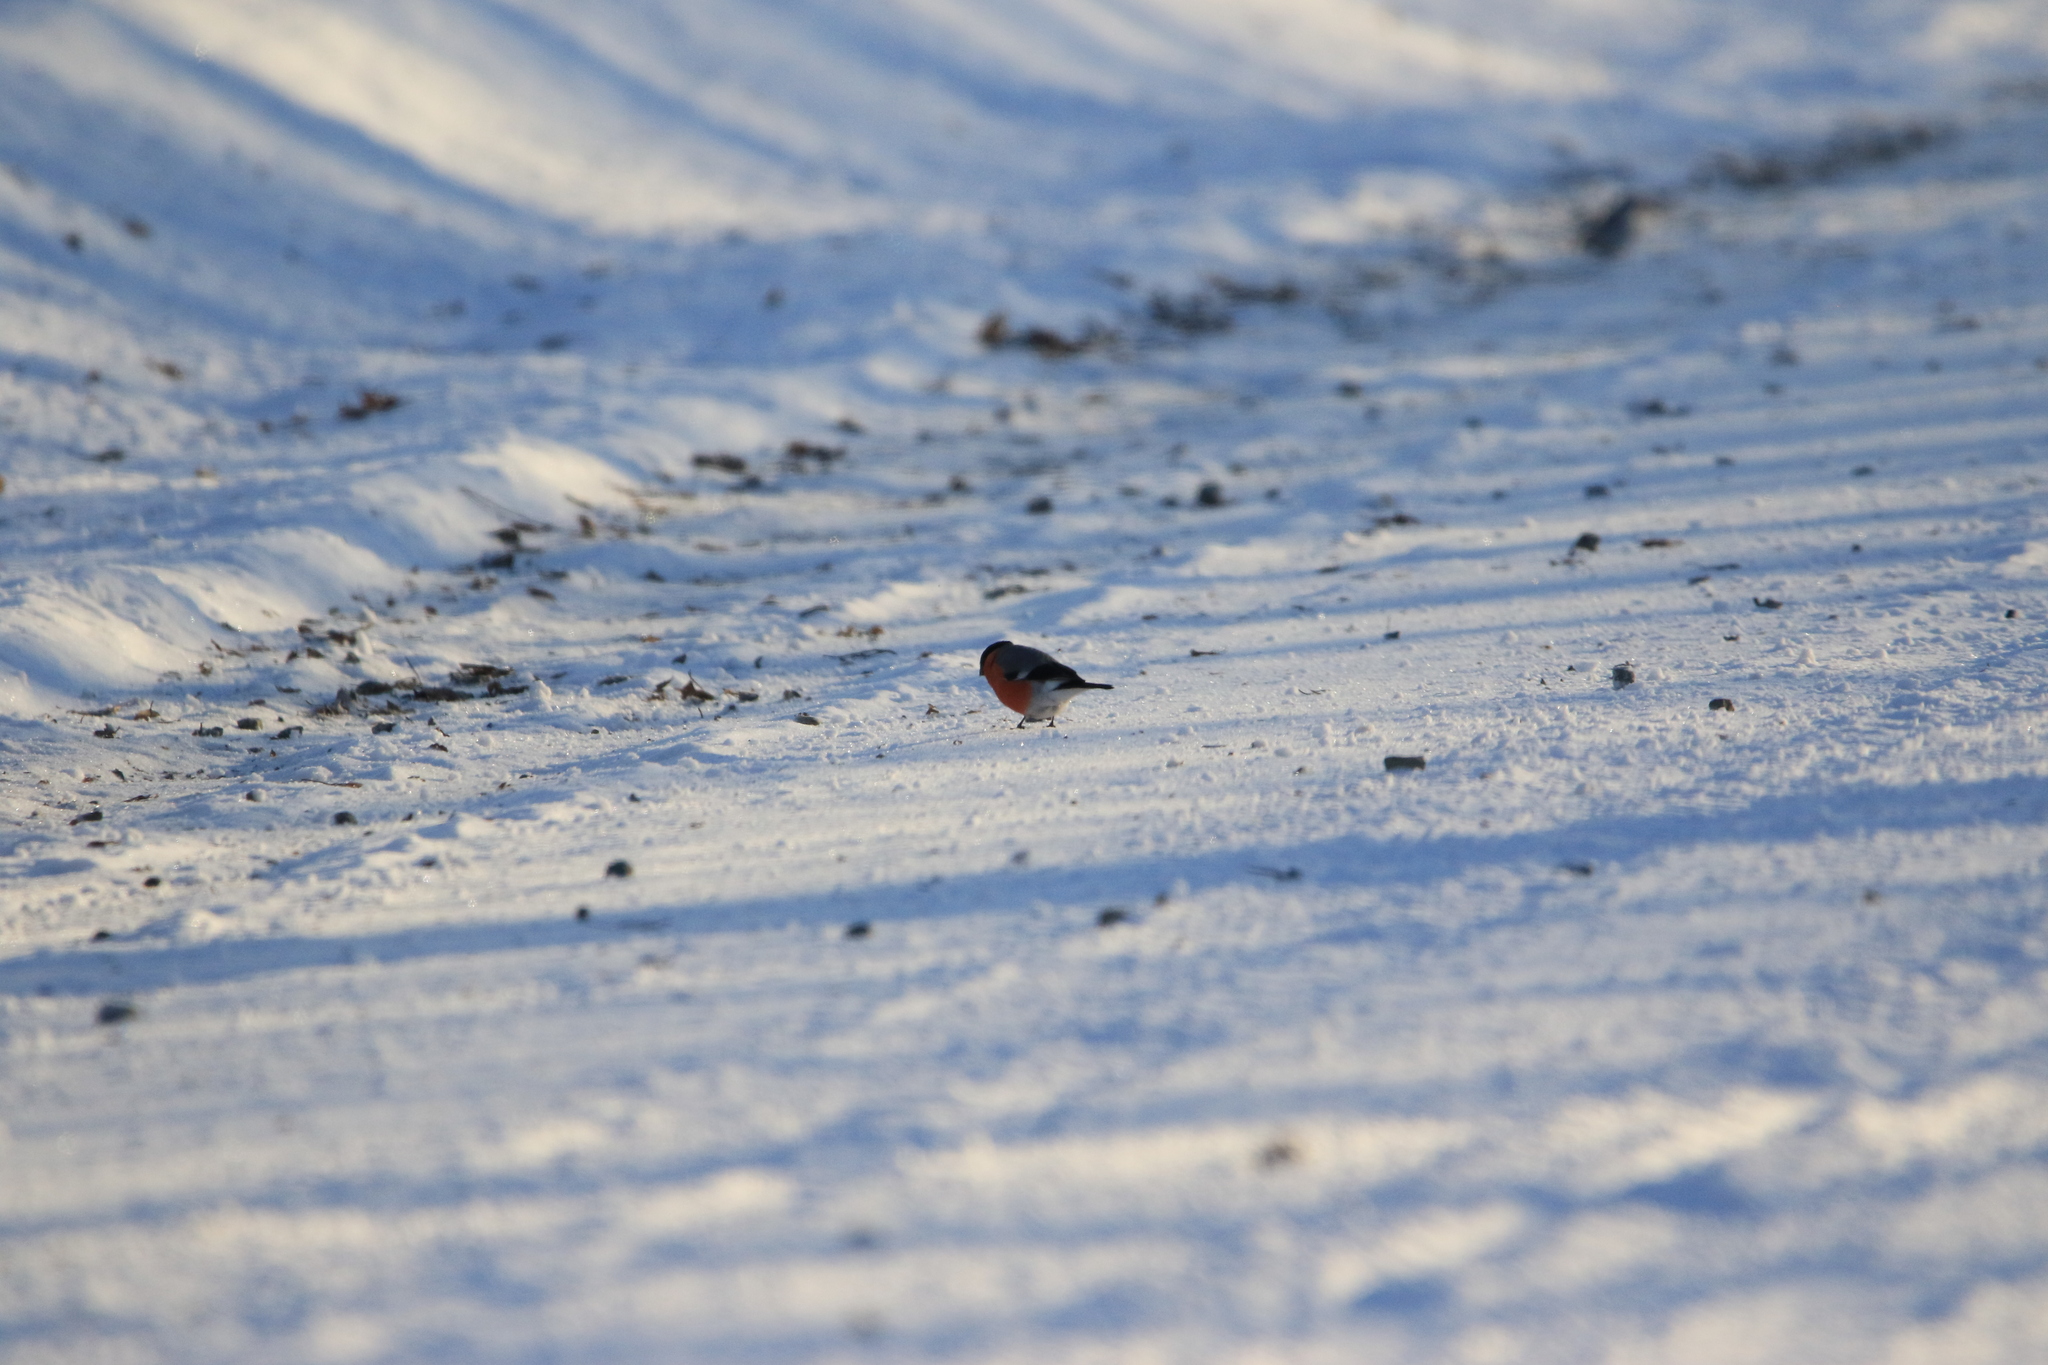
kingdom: Animalia
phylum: Chordata
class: Aves
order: Passeriformes
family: Fringillidae
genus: Pyrrhula
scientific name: Pyrrhula pyrrhula
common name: Eurasian bullfinch
